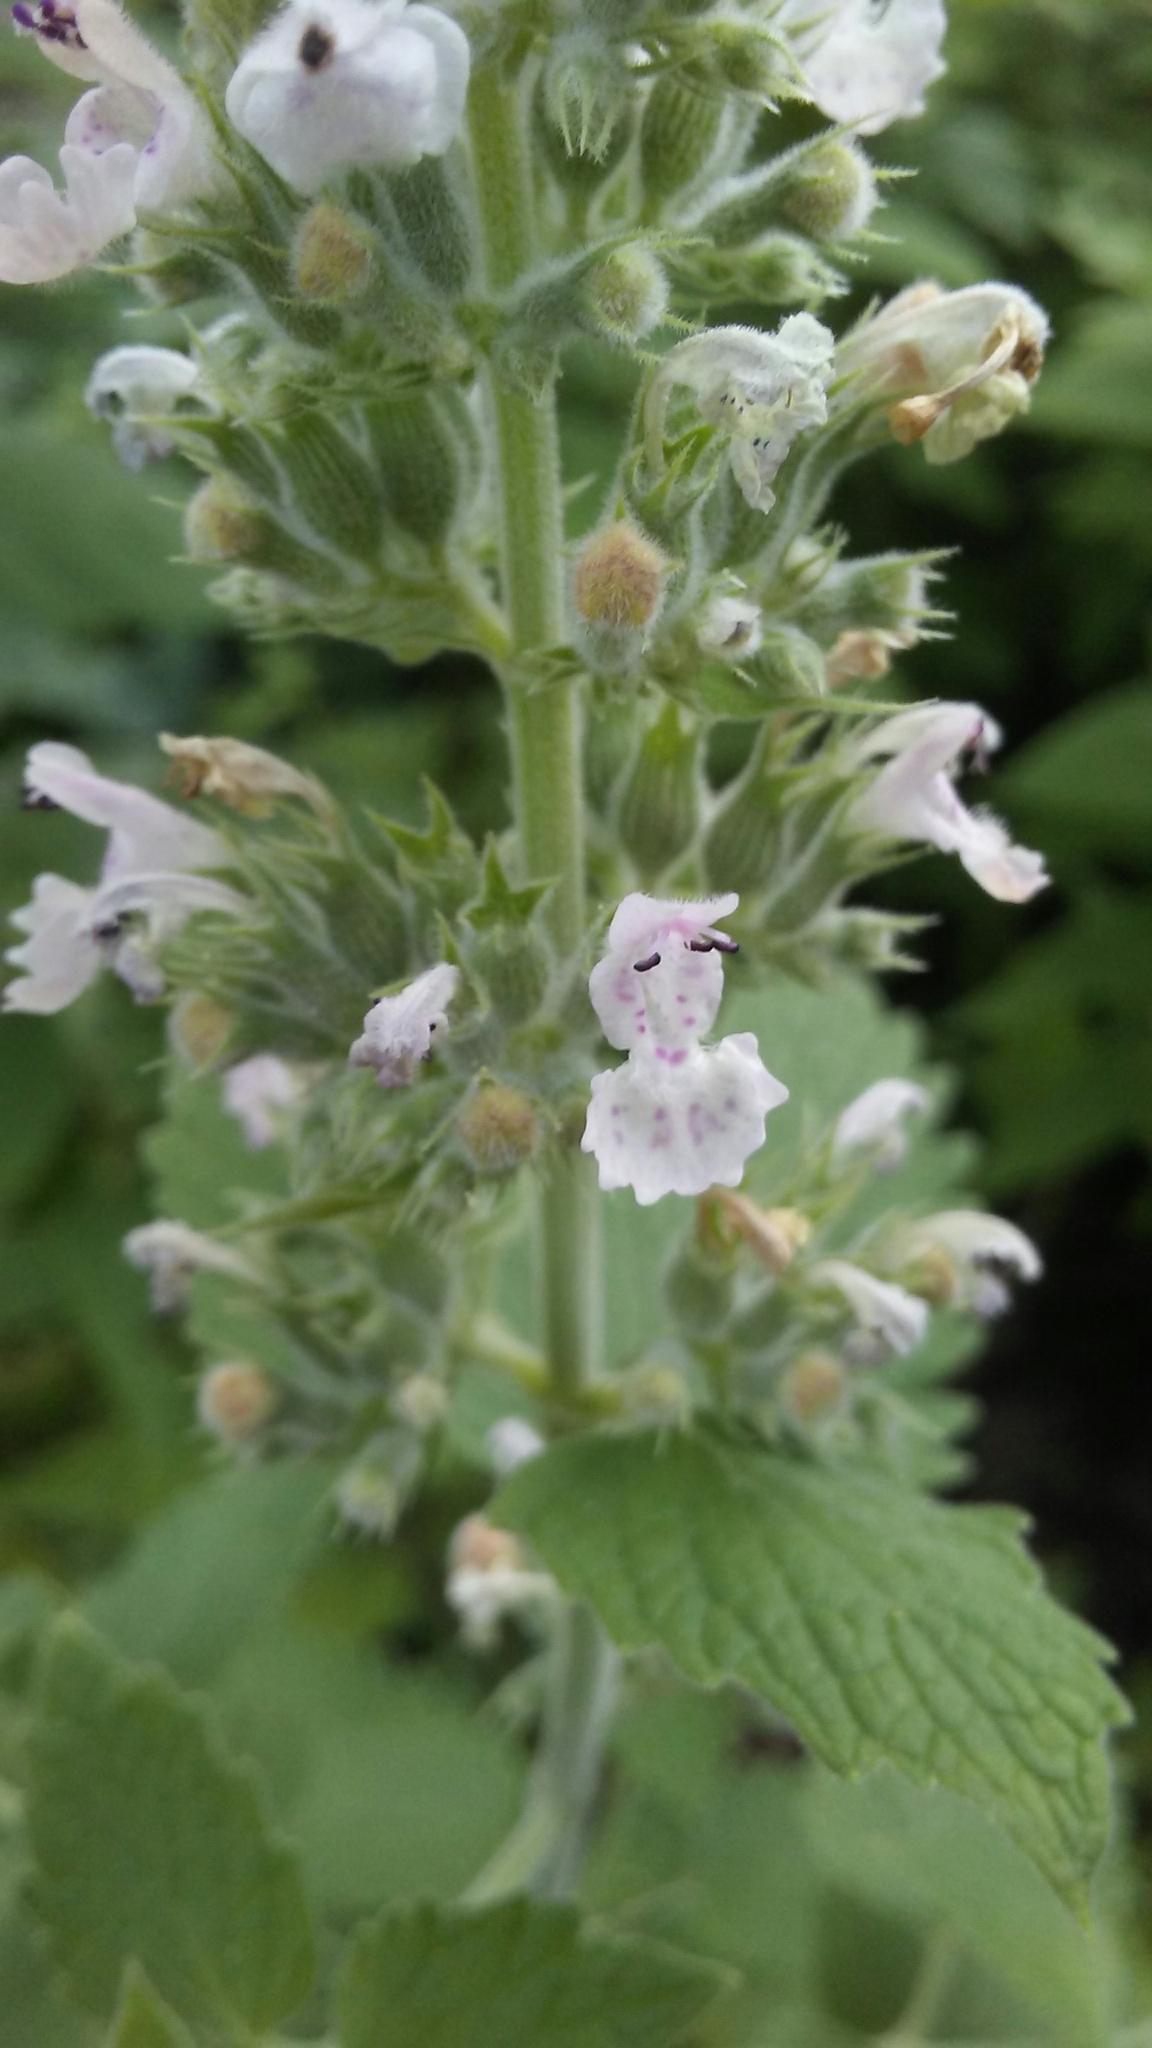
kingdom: Plantae
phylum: Tracheophyta
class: Magnoliopsida
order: Lamiales
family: Lamiaceae
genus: Nepeta
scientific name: Nepeta cataria
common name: Catnip
